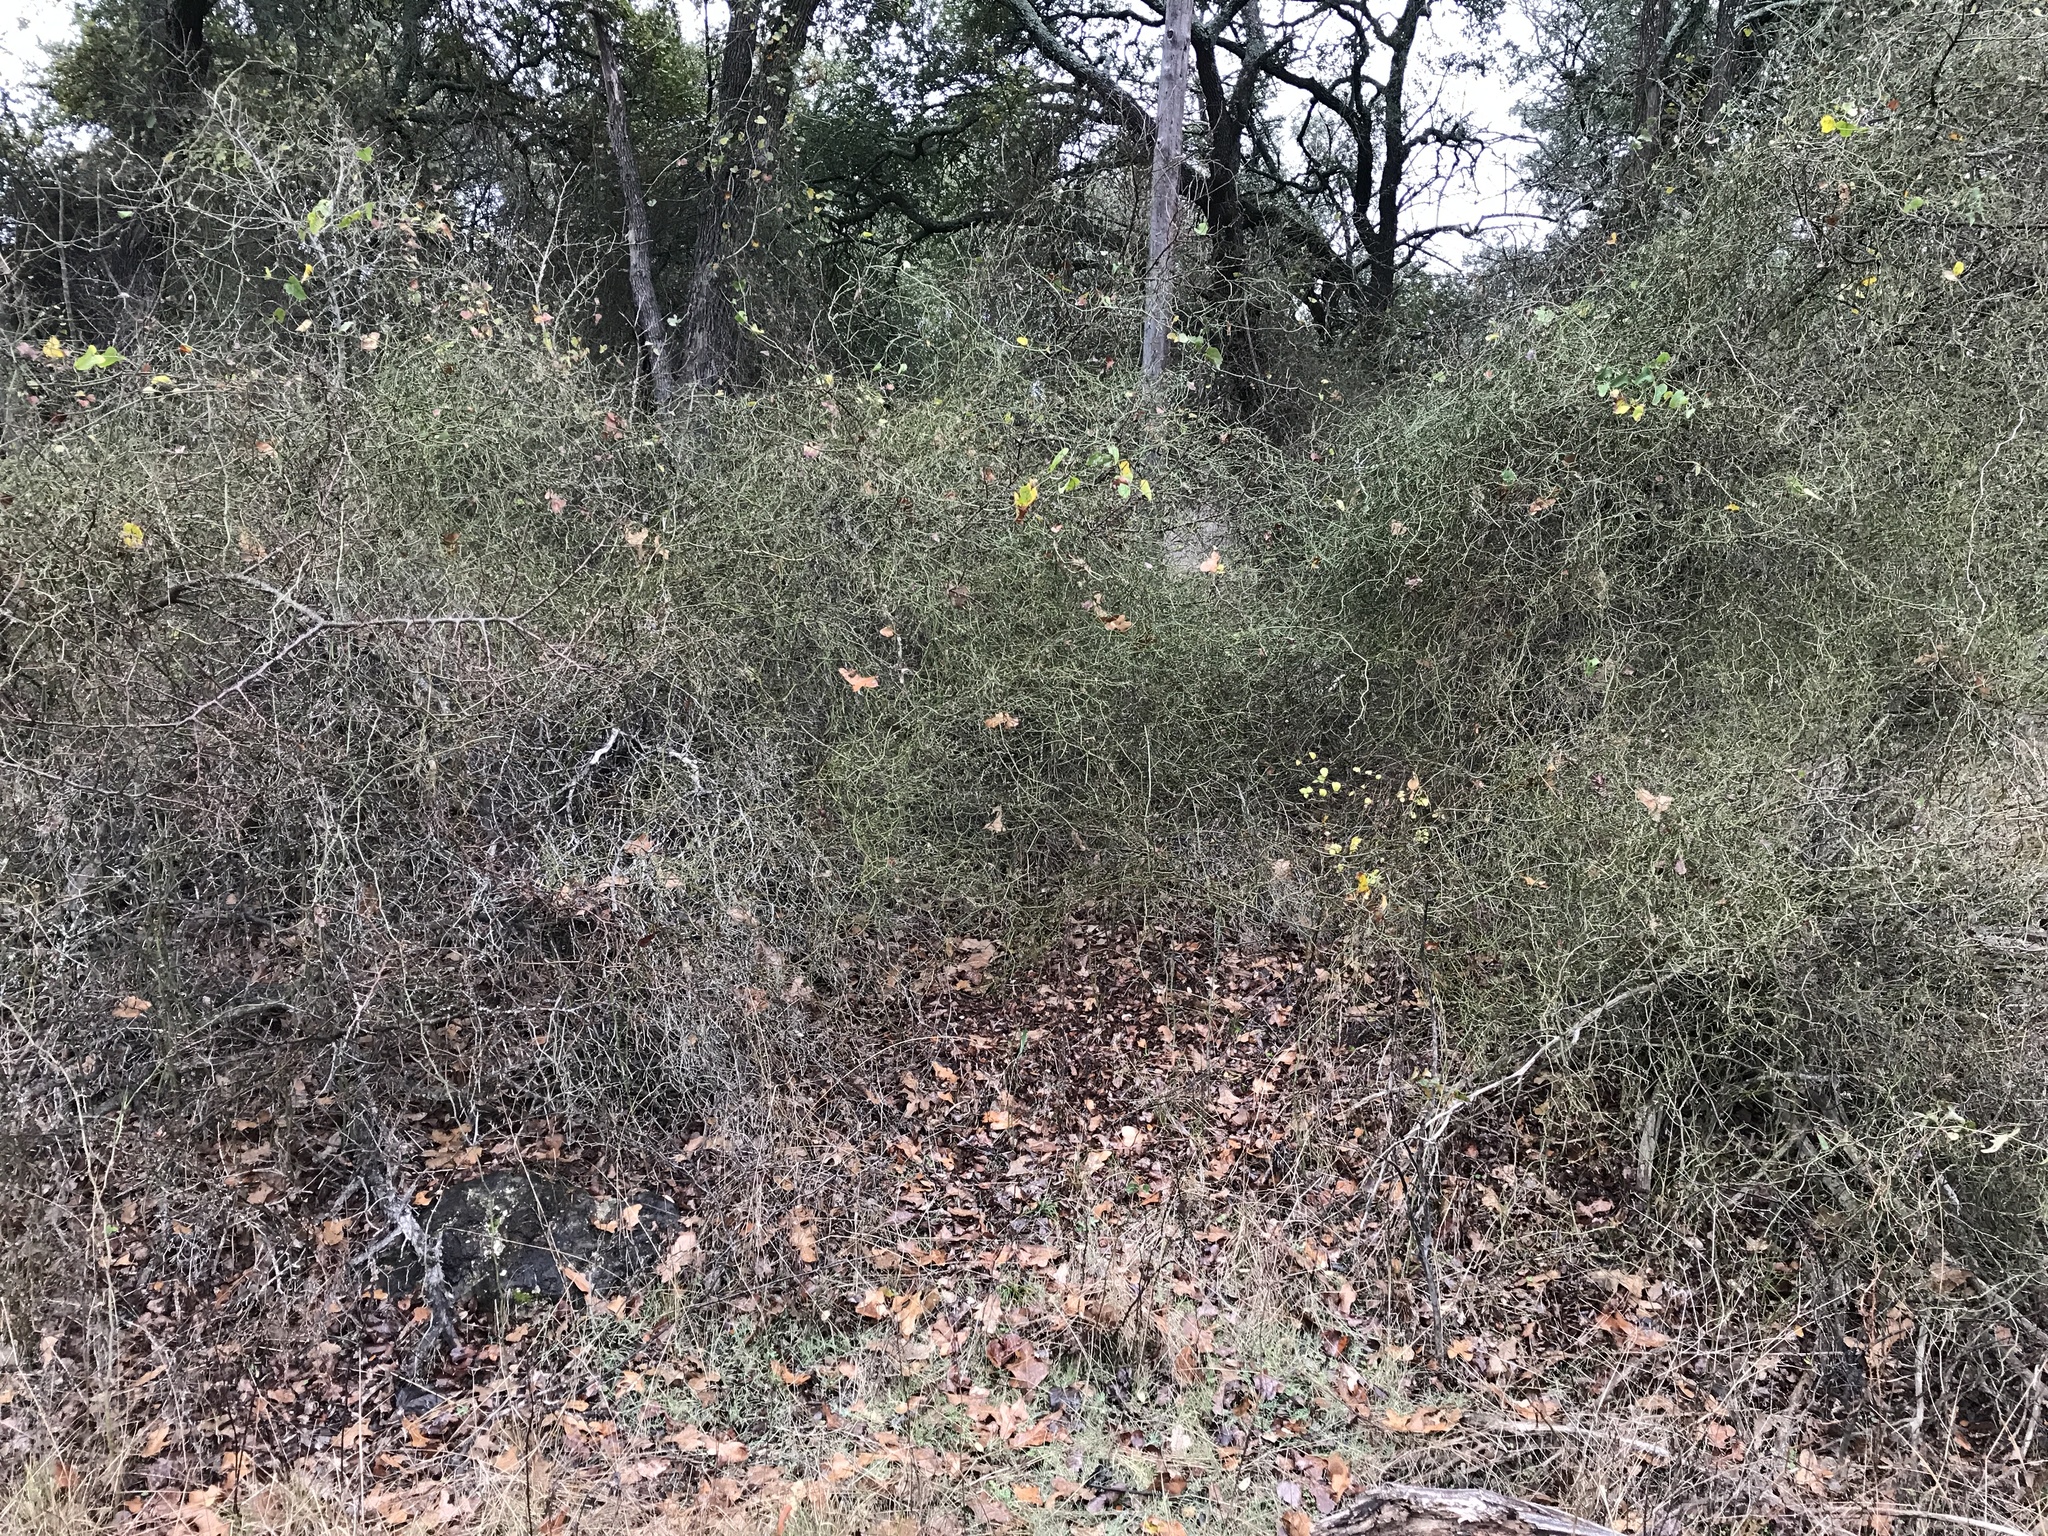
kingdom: Plantae
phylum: Tracheophyta
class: Liliopsida
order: Liliales
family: Smilacaceae
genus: Smilax
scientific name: Smilax bona-nox
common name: Catbrier
